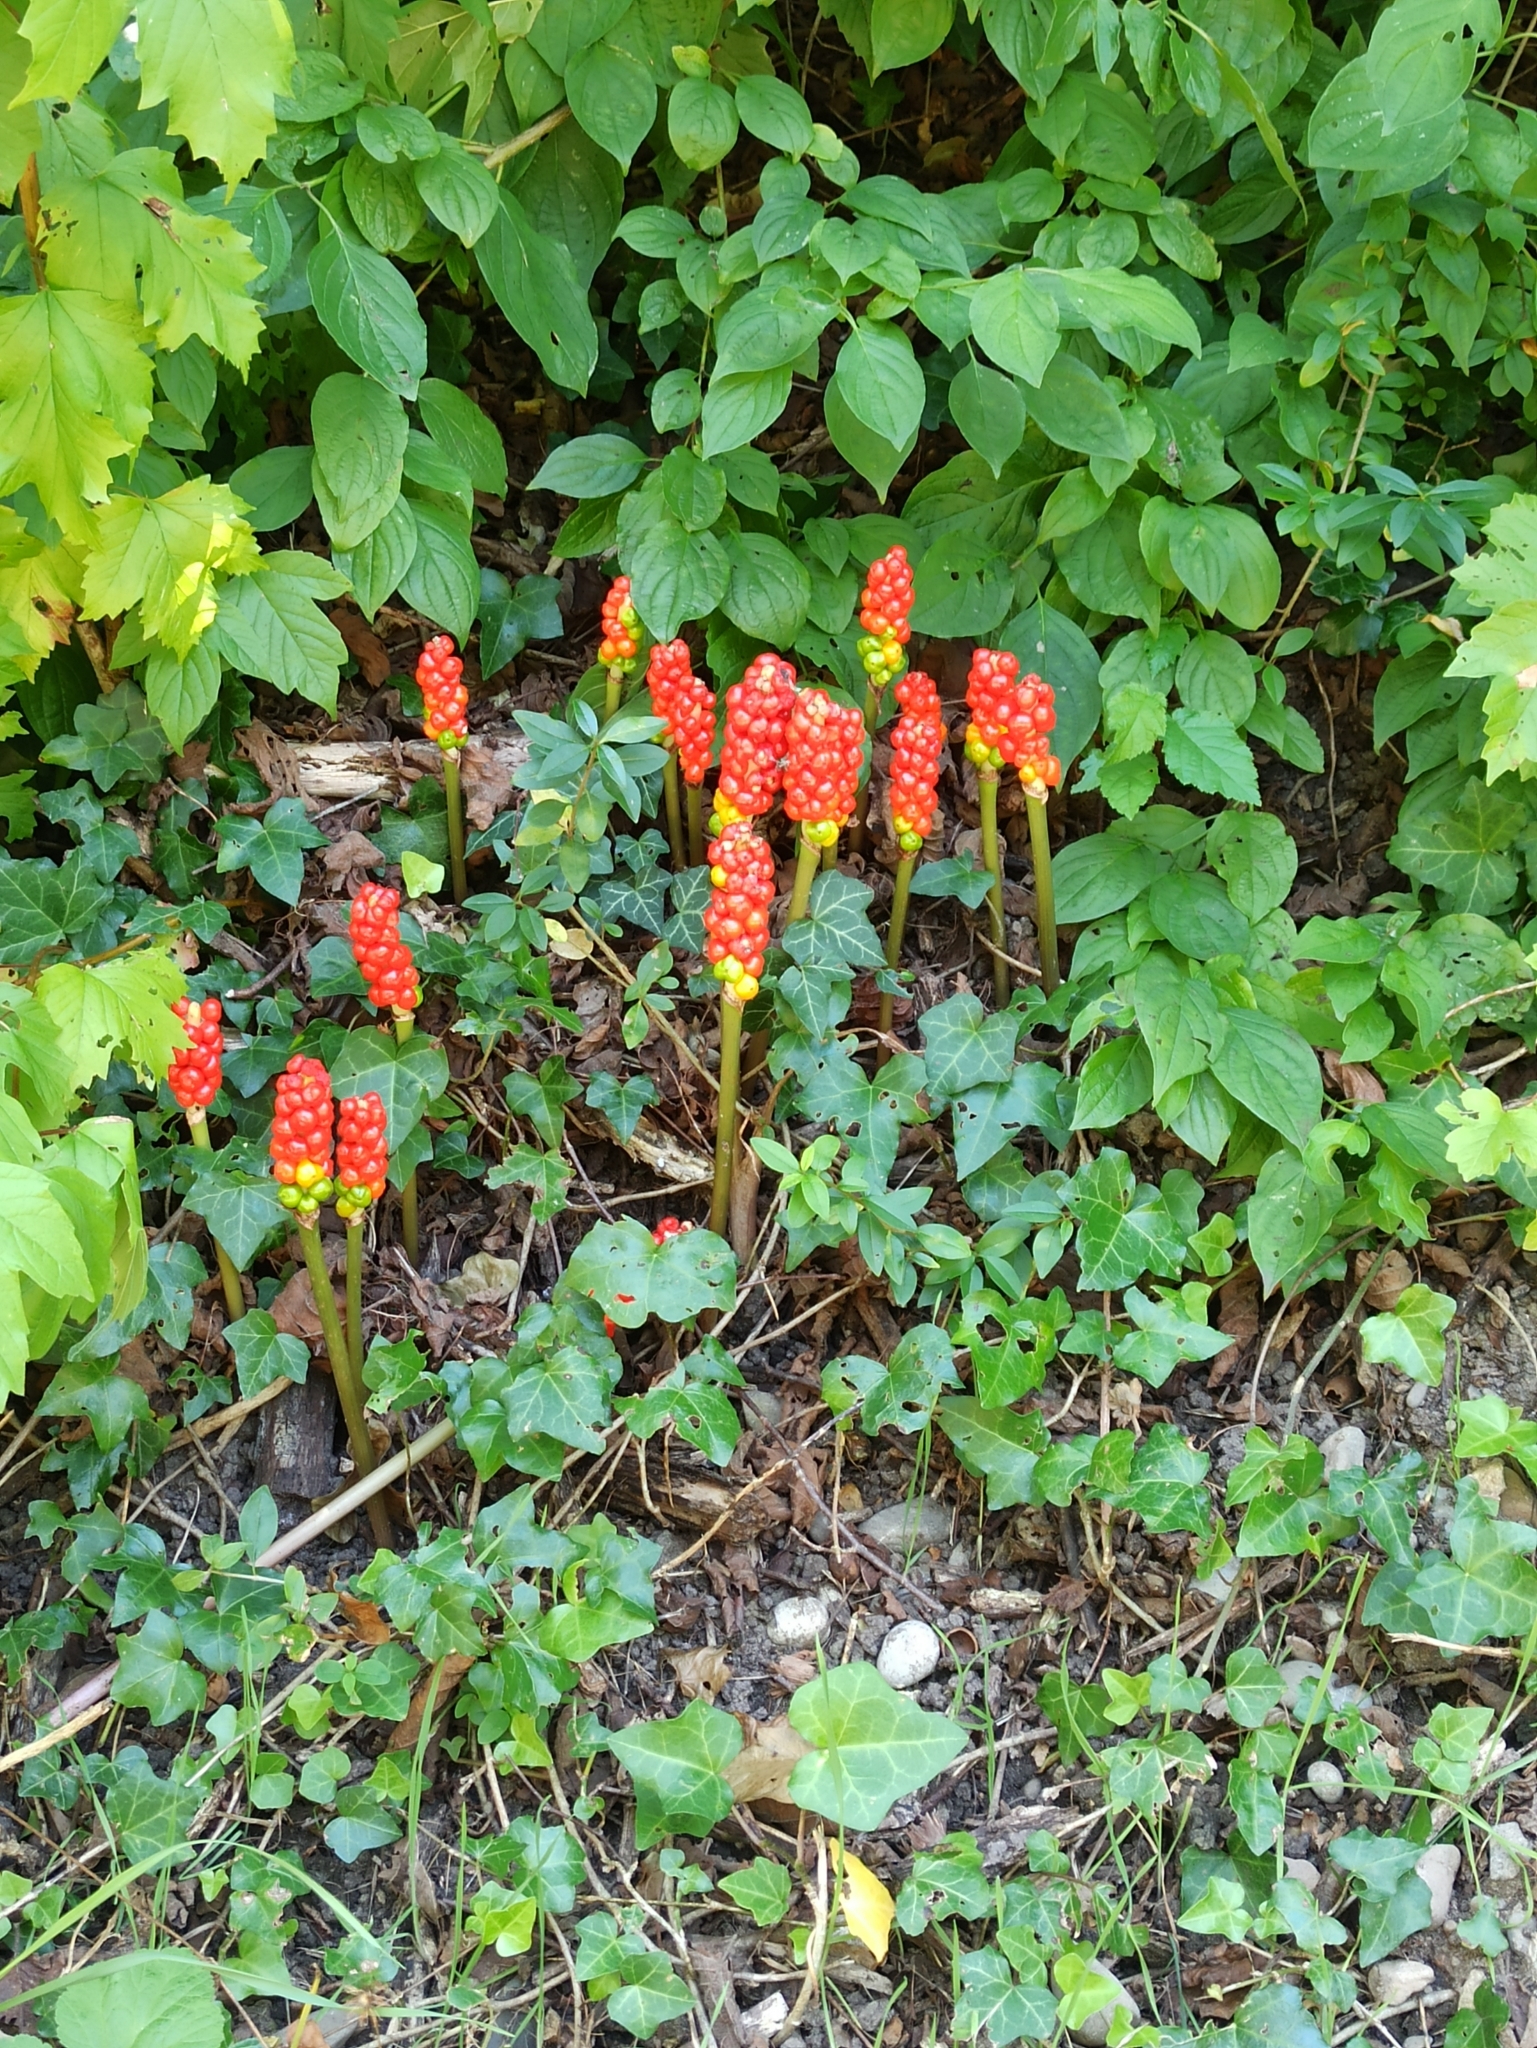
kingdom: Plantae
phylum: Tracheophyta
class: Liliopsida
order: Alismatales
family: Araceae
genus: Arum
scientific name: Arum maculatum
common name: Lords-and-ladies
